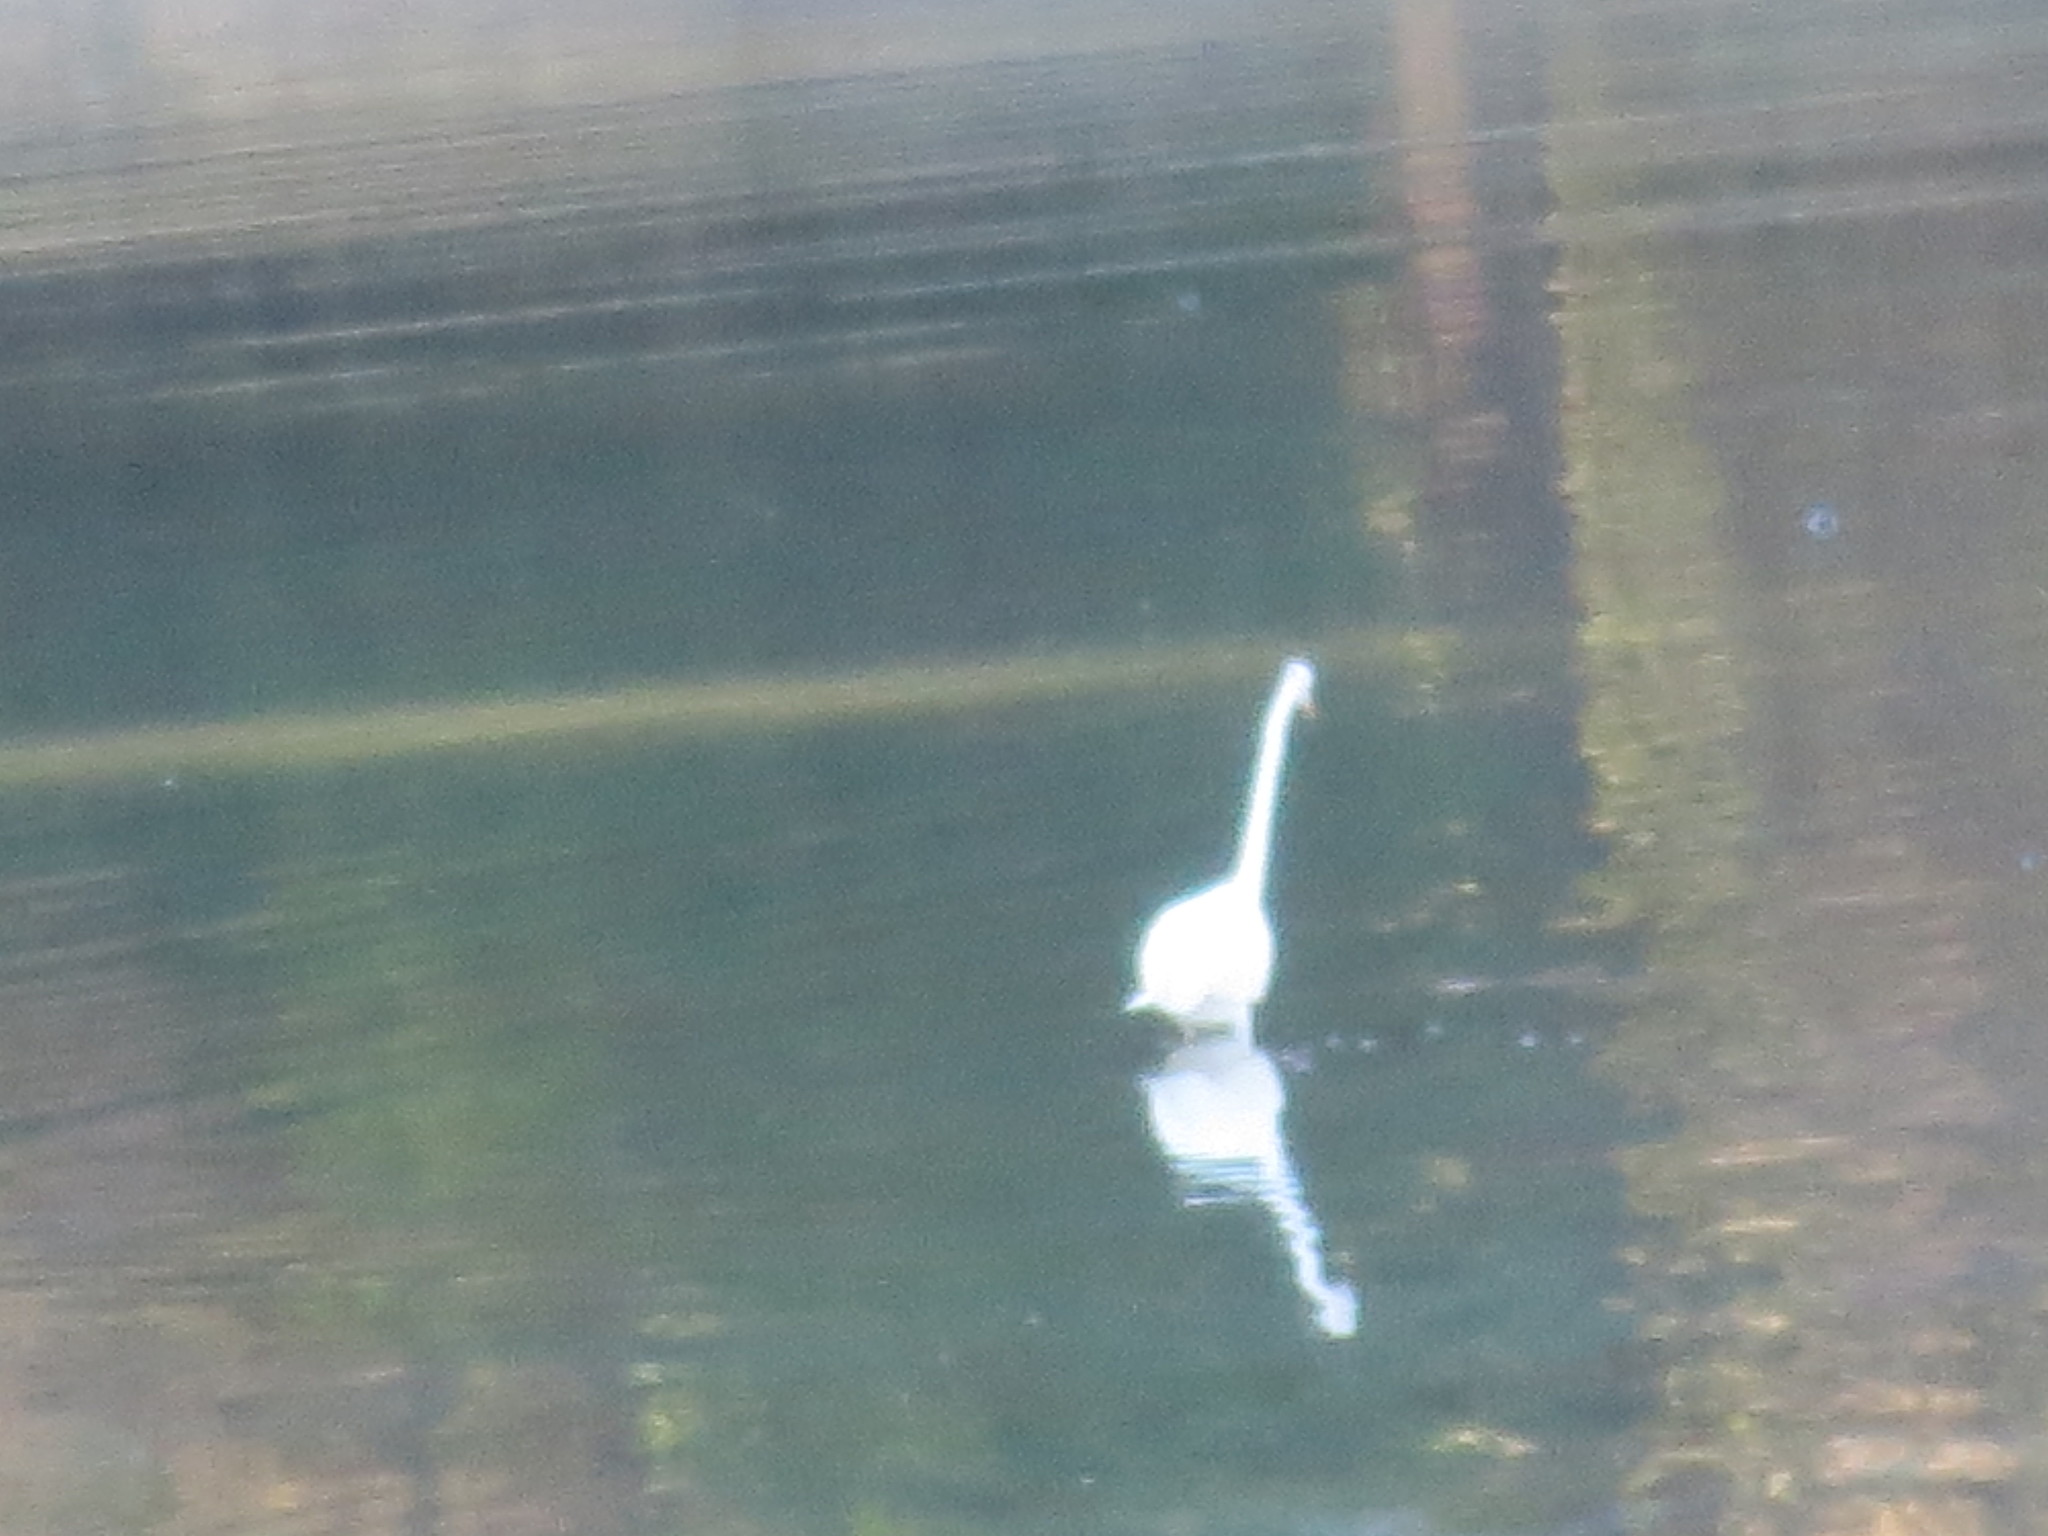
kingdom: Animalia
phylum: Chordata
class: Aves
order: Pelecaniformes
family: Ardeidae
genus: Ardea
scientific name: Ardea alba
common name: Great egret
